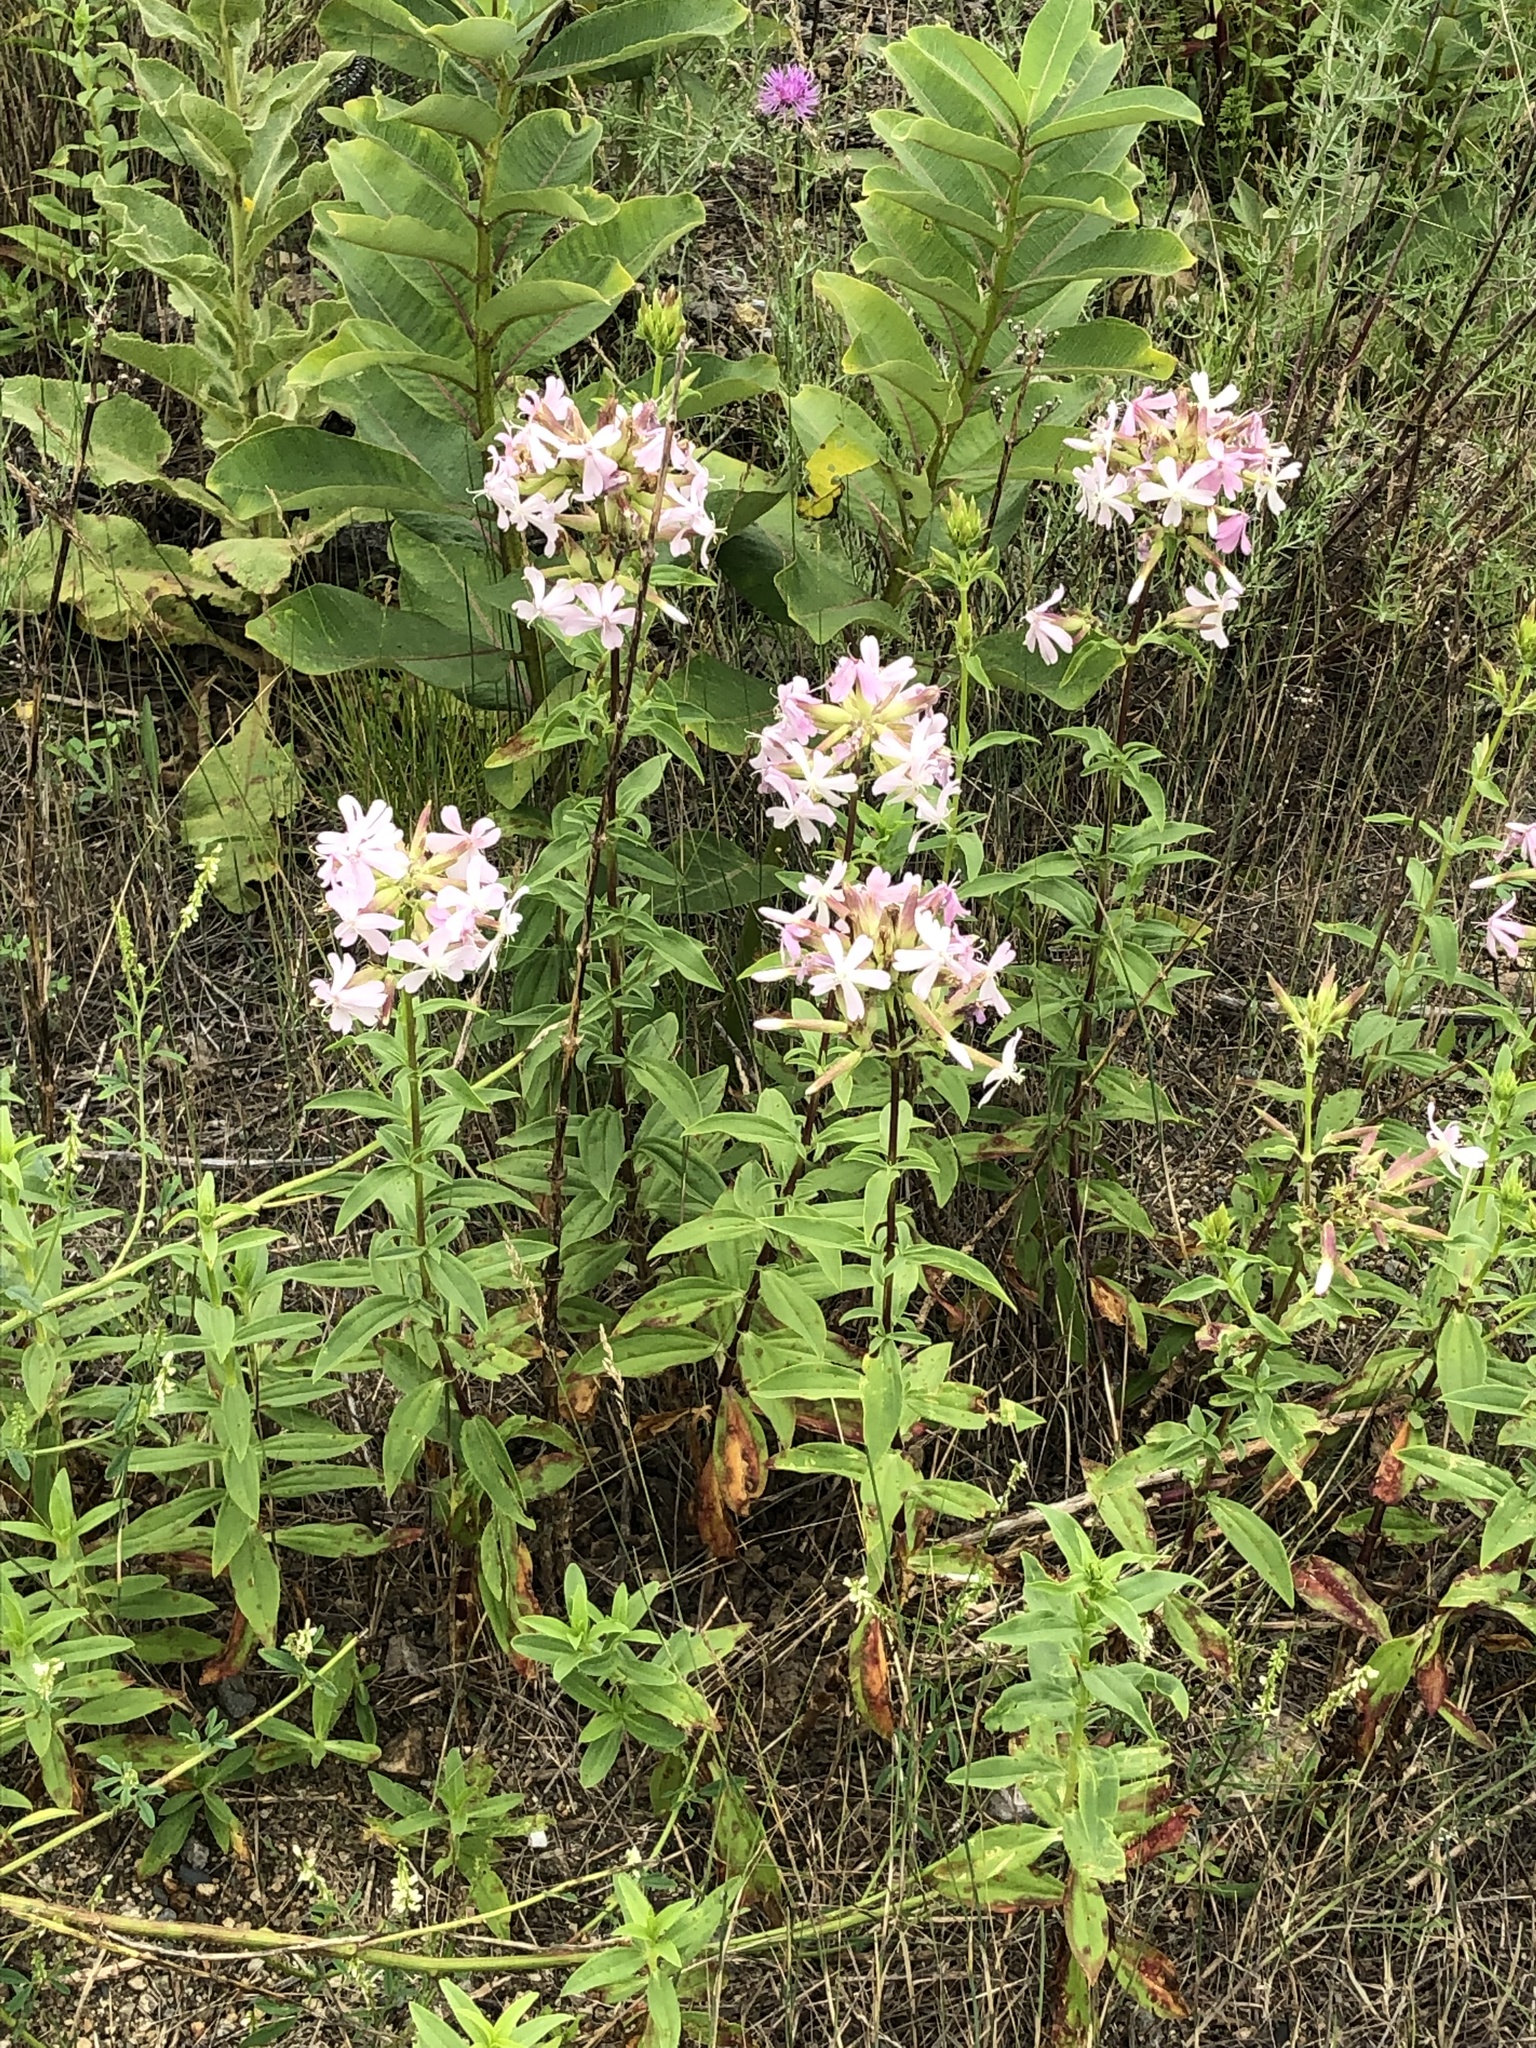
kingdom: Plantae
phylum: Tracheophyta
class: Magnoliopsida
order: Caryophyllales
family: Caryophyllaceae
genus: Saponaria
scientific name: Saponaria officinalis
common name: Soapwort
